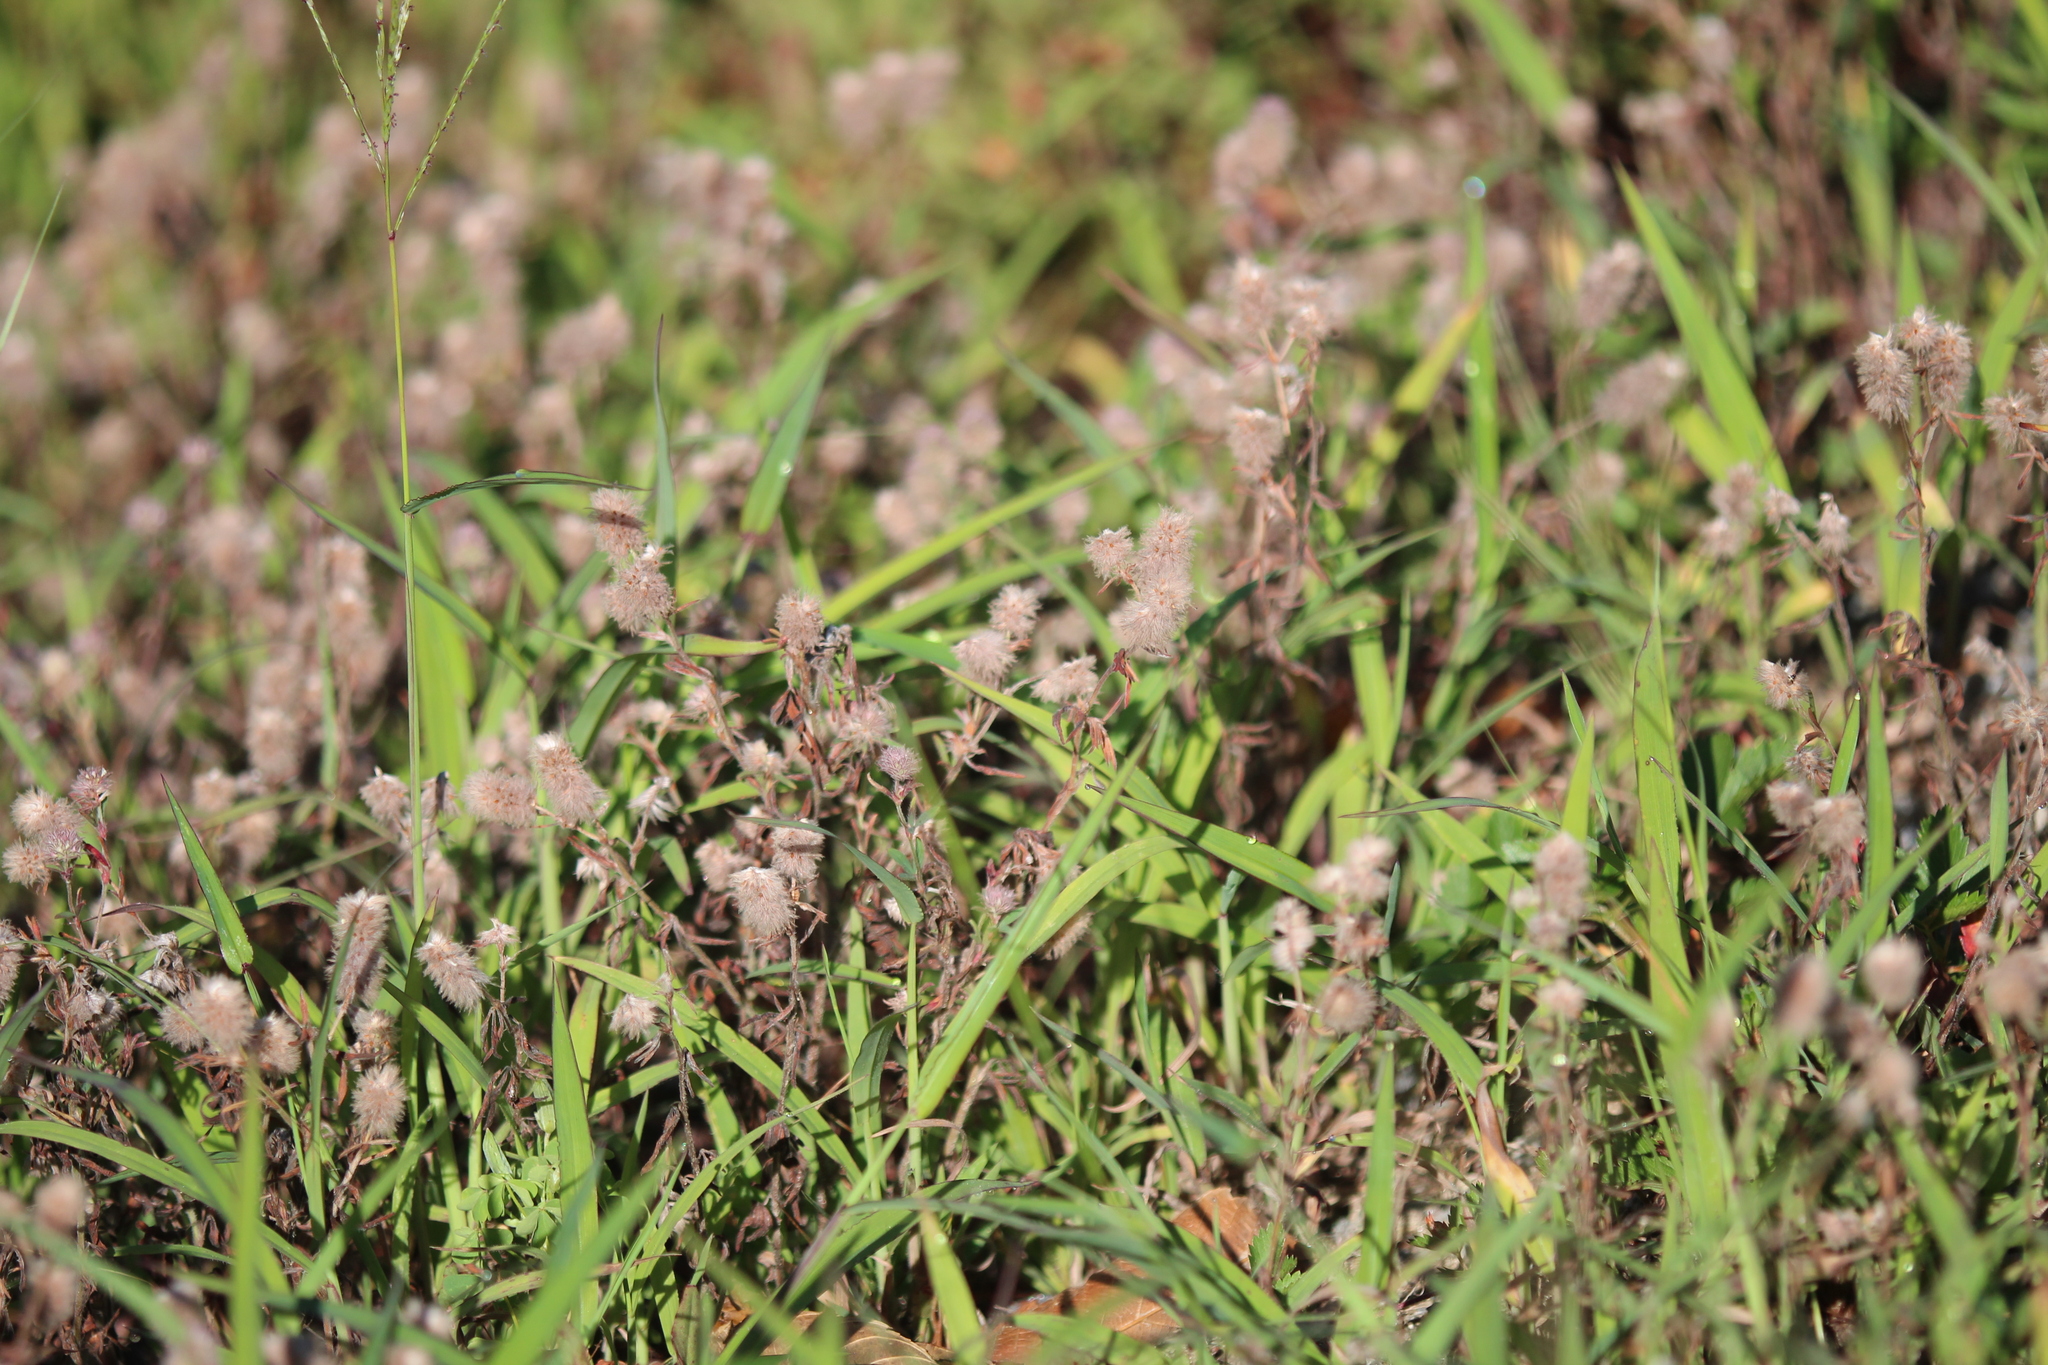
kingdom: Plantae
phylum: Tracheophyta
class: Magnoliopsida
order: Fabales
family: Fabaceae
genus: Trifolium
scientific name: Trifolium arvense
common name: Hare's-foot clover
